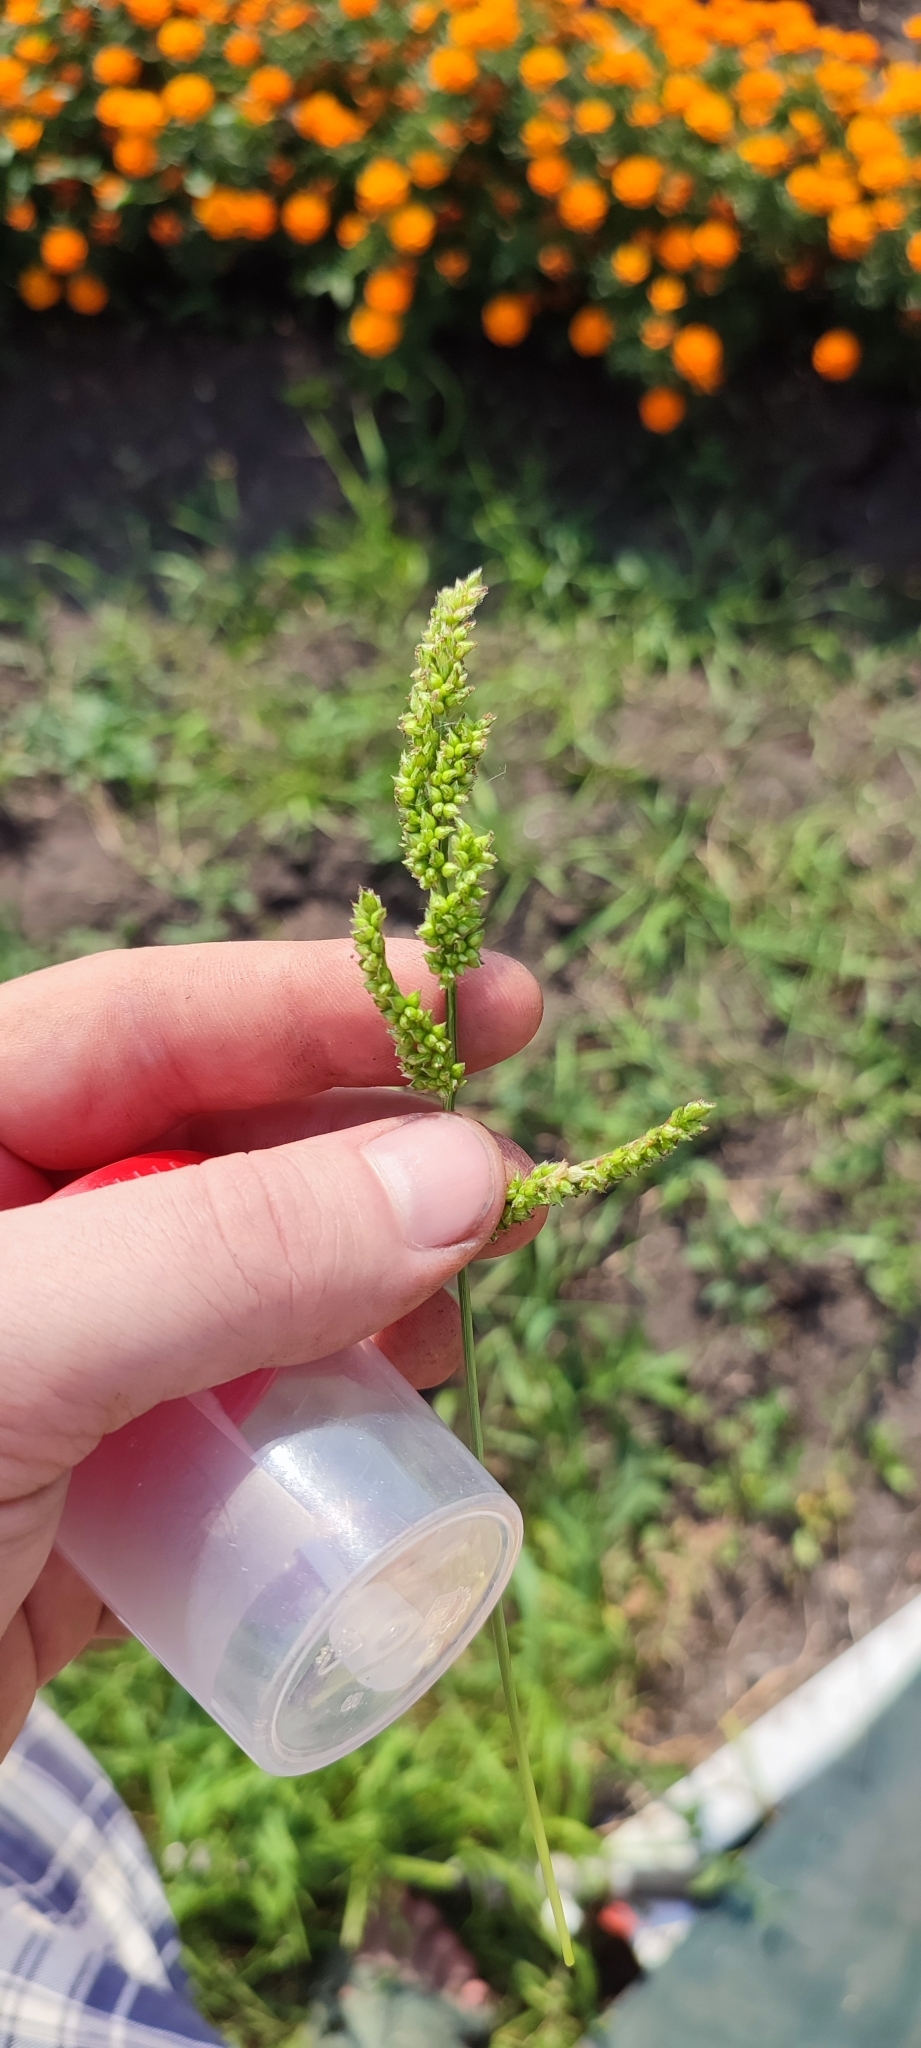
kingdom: Plantae
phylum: Tracheophyta
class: Liliopsida
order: Poales
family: Poaceae
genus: Echinochloa
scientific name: Echinochloa crus-galli
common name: Cockspur
